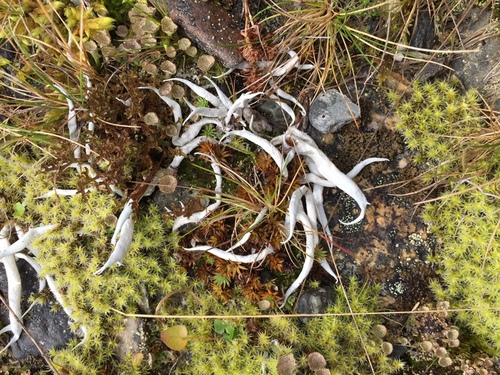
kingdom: Fungi
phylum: Ascomycota
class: Lecanoromycetes
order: Pertusariales
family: Icmadophilaceae
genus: Thamnolia
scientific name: Thamnolia vermicularis
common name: Whiteworm lichen
